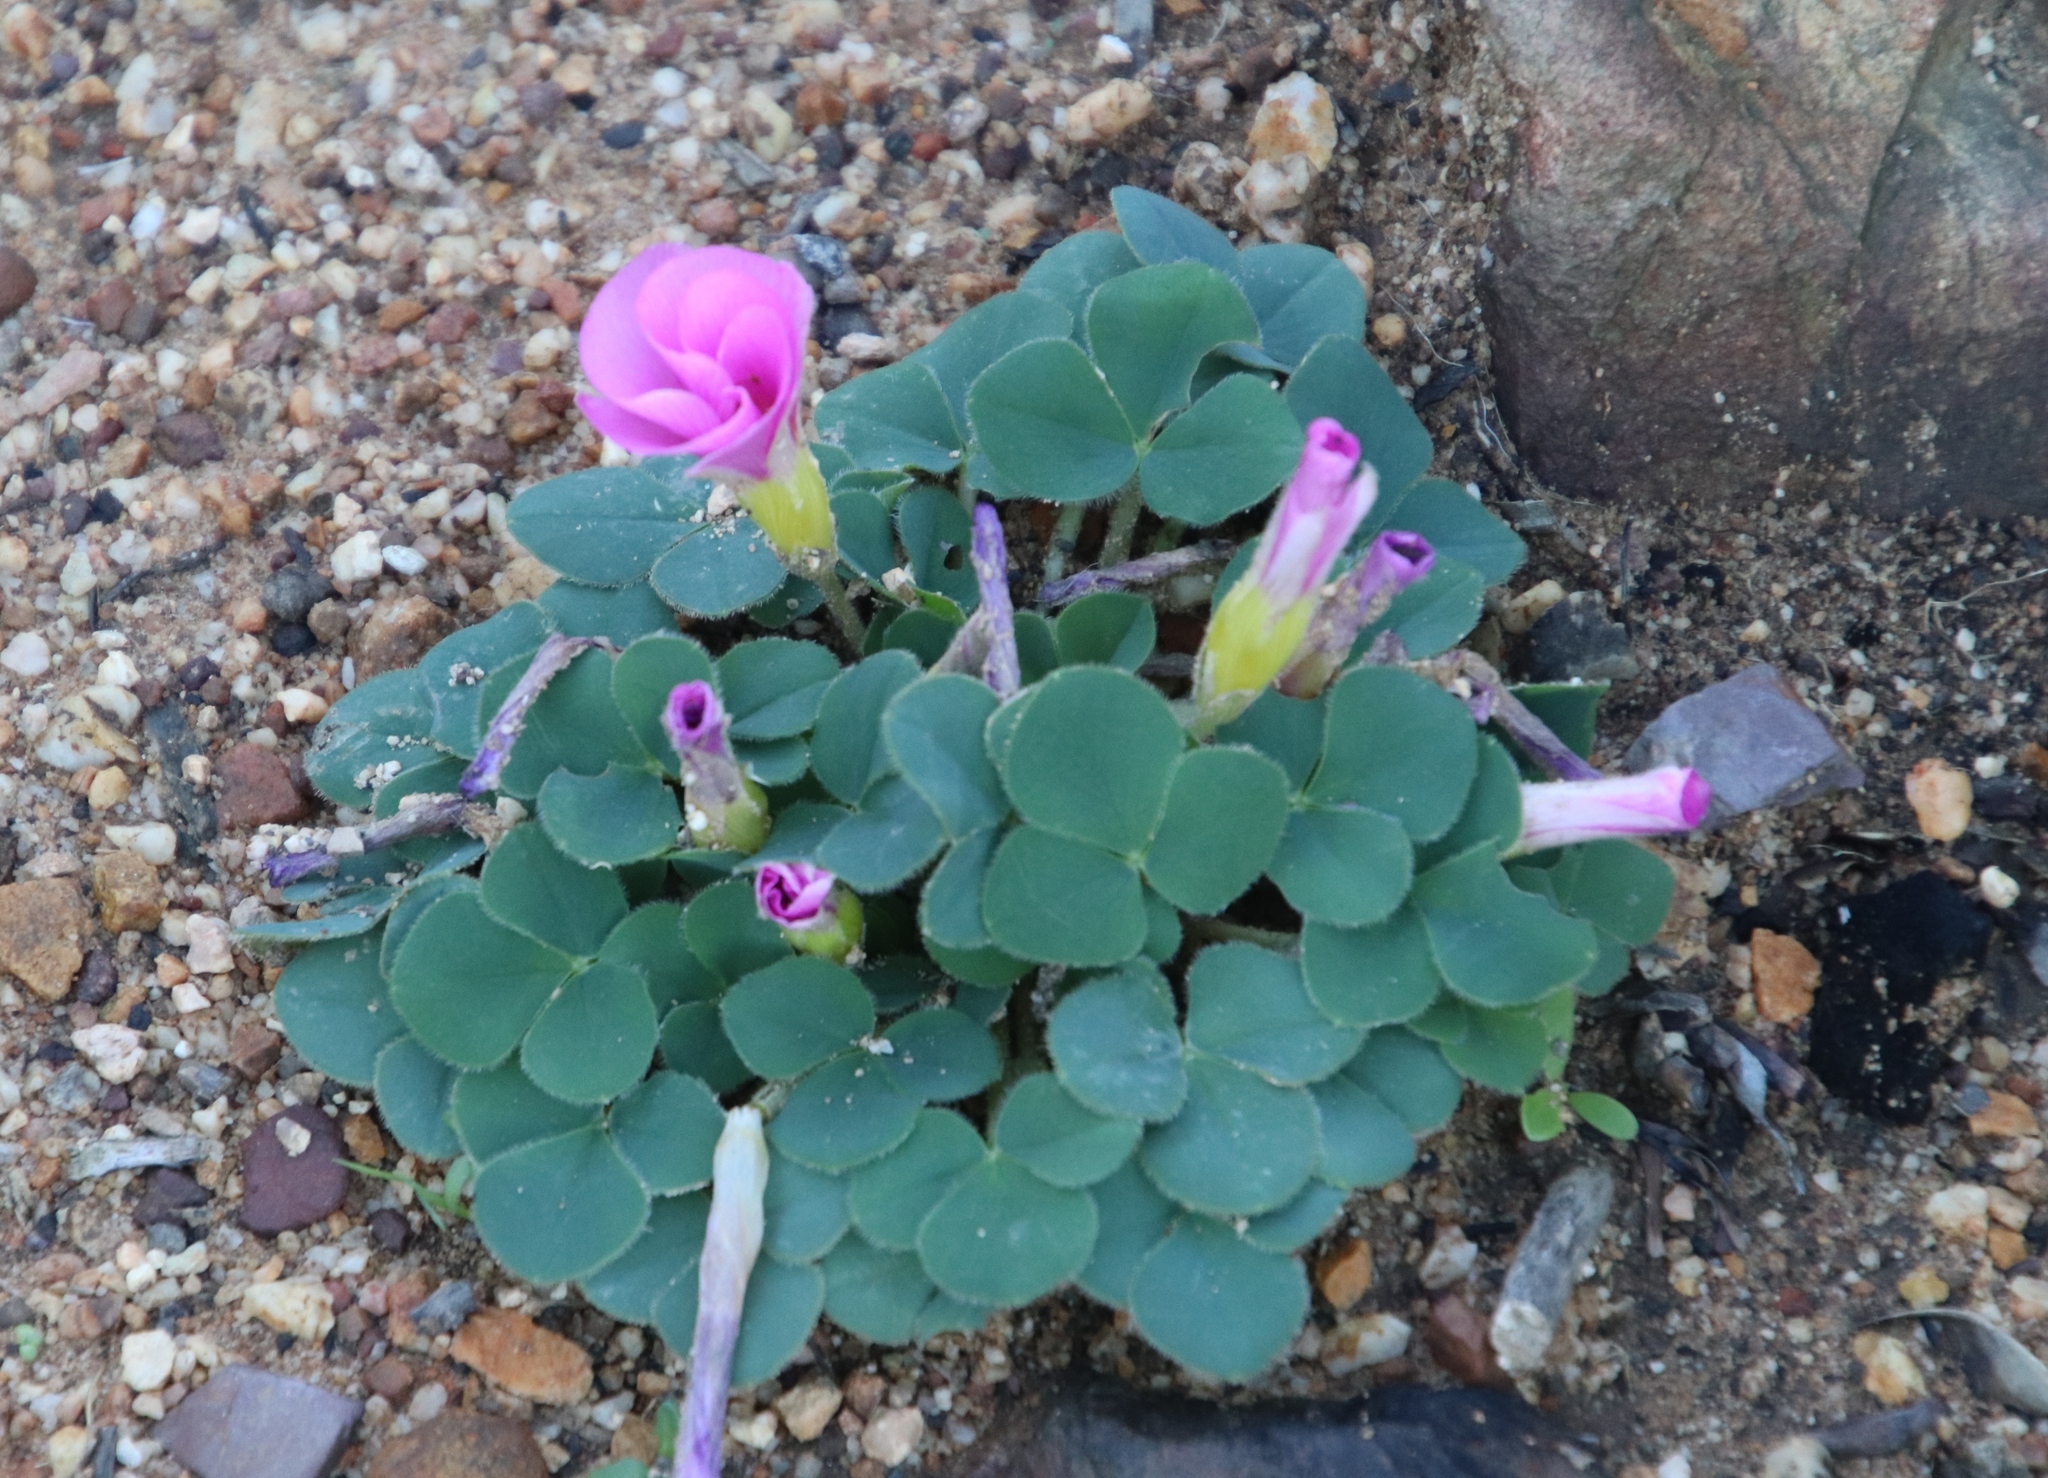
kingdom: Plantae
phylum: Tracheophyta
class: Magnoliopsida
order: Oxalidales
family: Oxalidaceae
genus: Oxalis
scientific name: Oxalis purpurea
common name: Purple woodsorrel
